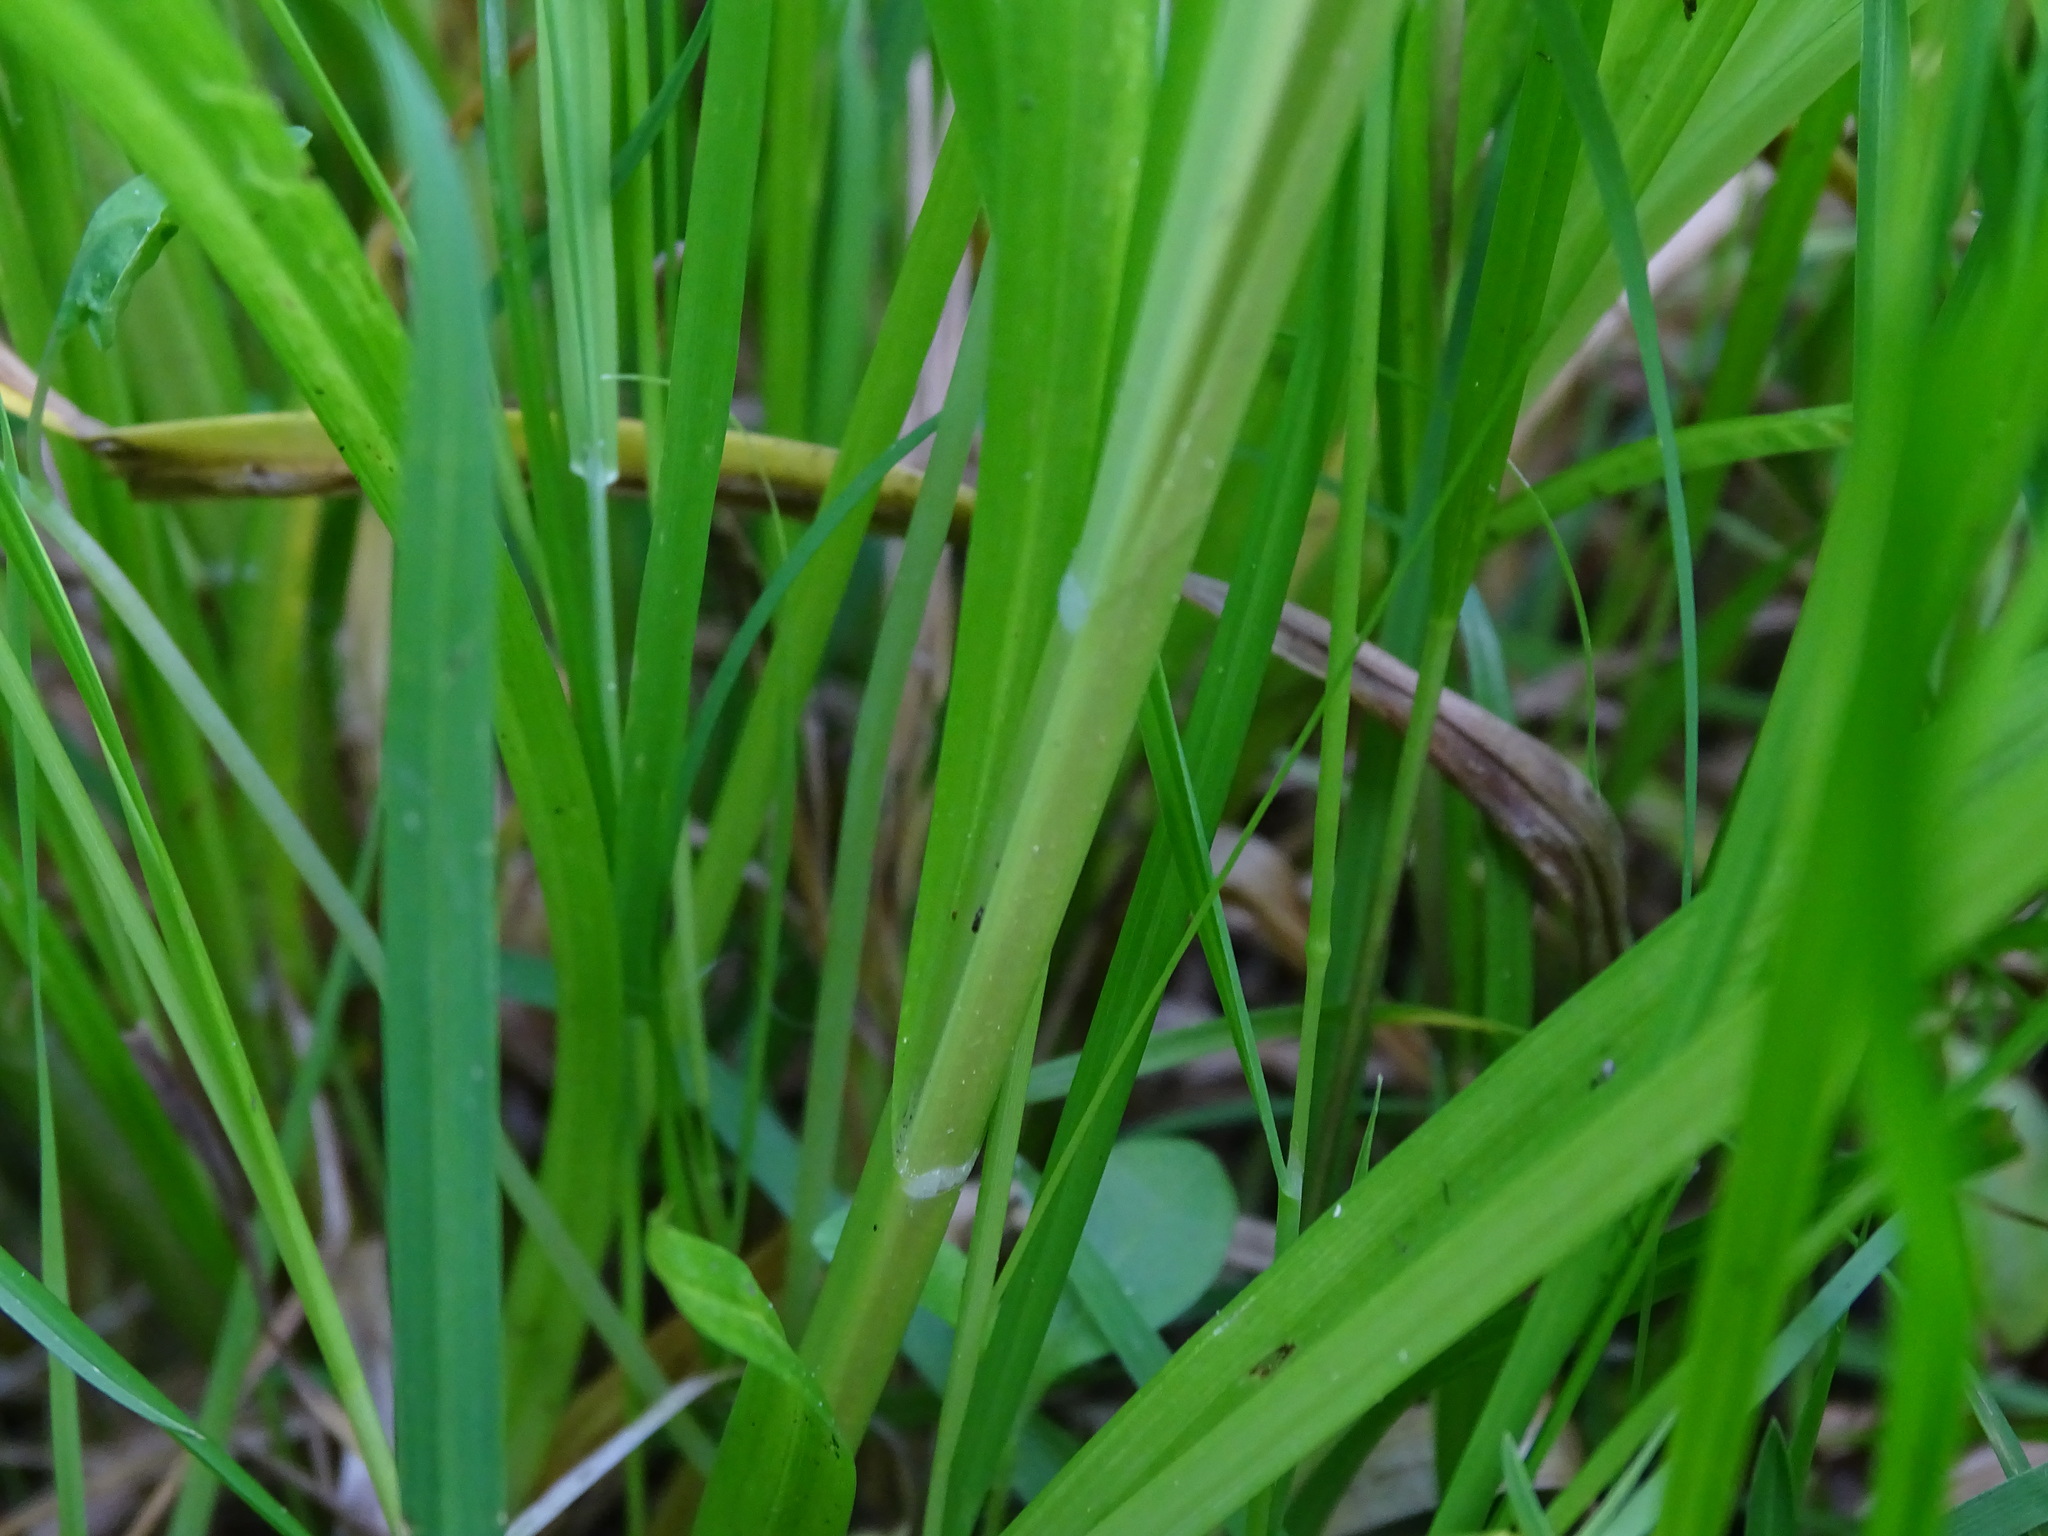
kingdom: Plantae
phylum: Tracheophyta
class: Liliopsida
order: Poales
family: Cyperaceae
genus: Carex
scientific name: Carex laevivaginata
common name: Smooth-sheathed fox sedge
